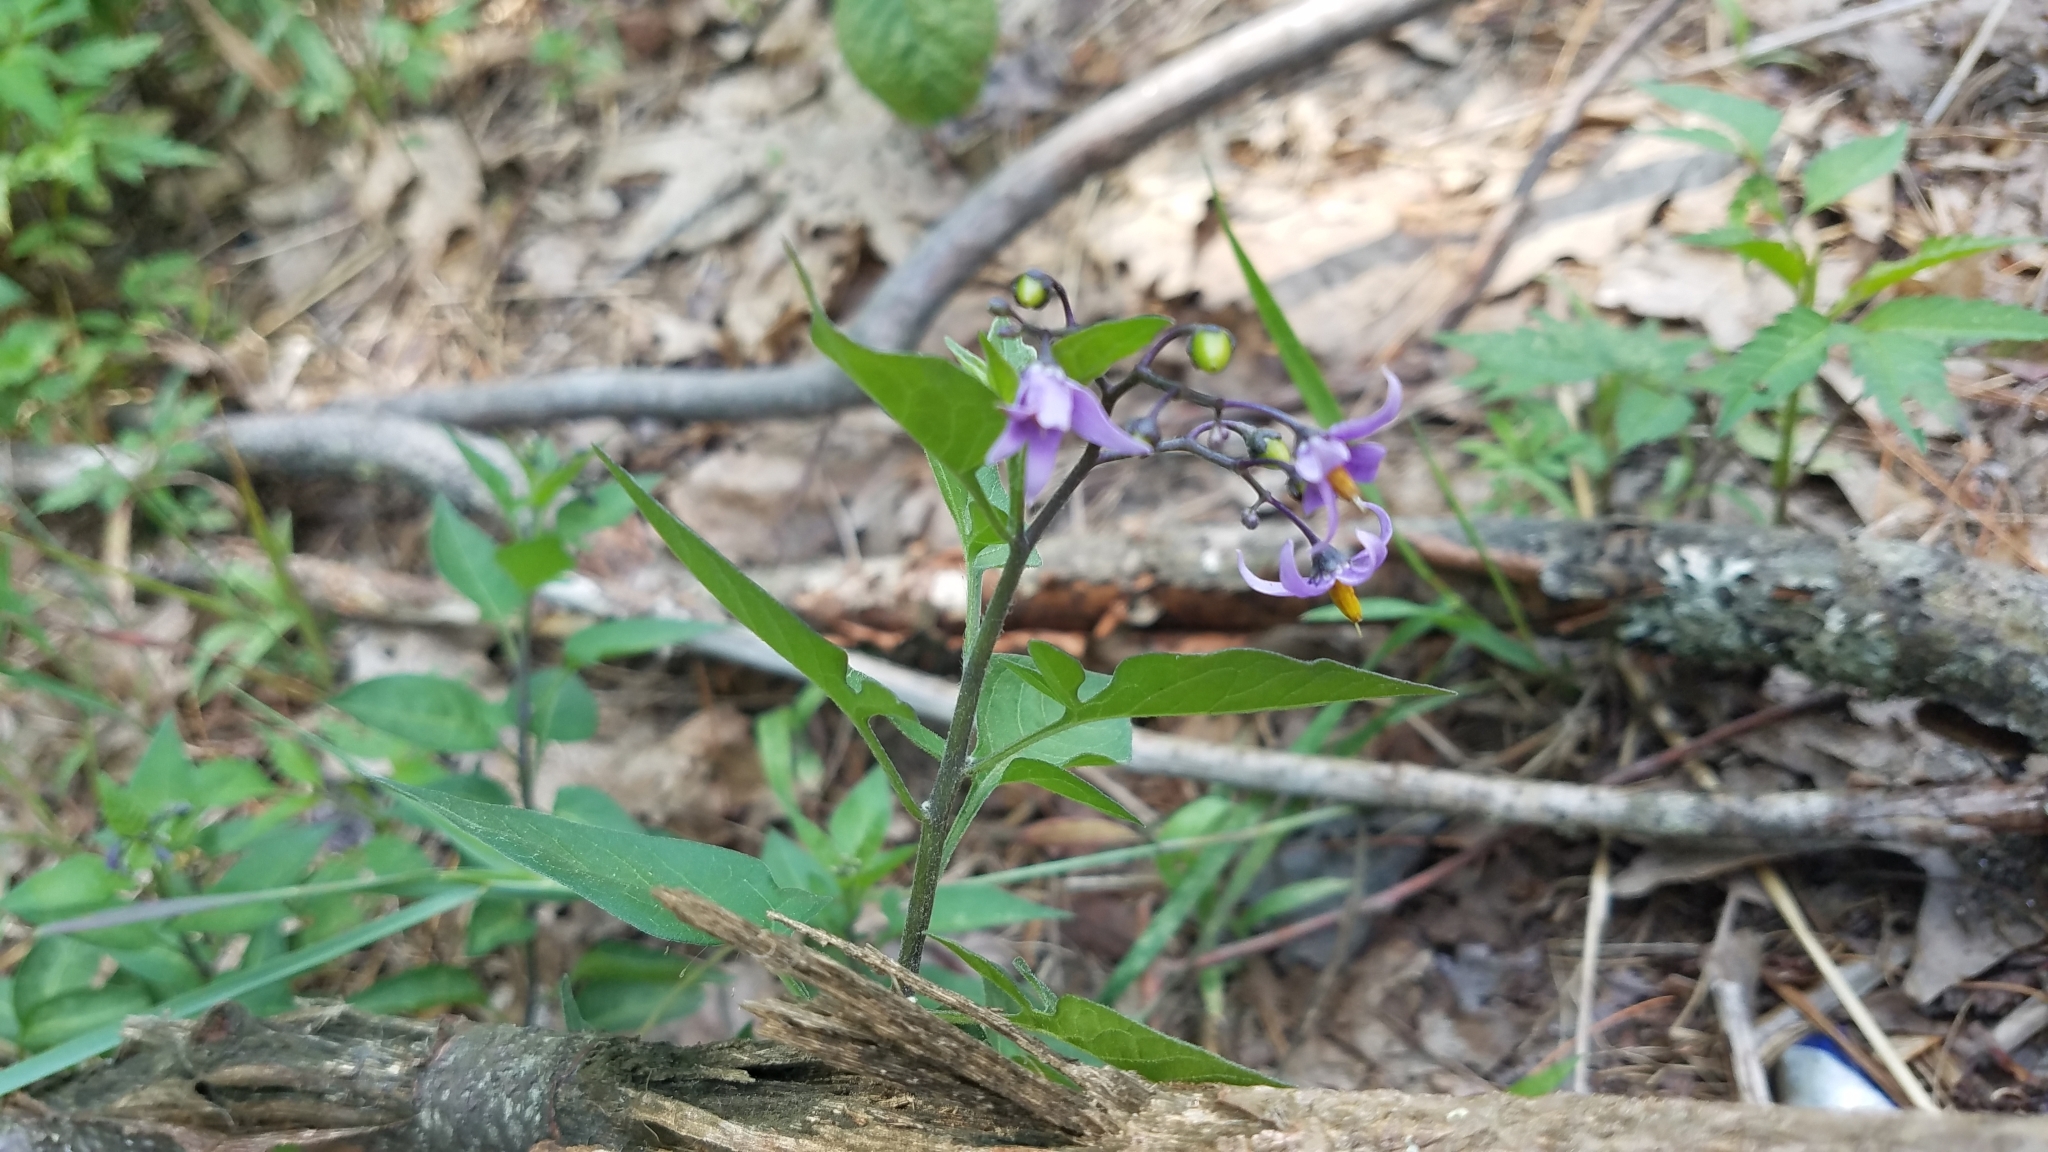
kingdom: Plantae
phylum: Tracheophyta
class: Magnoliopsida
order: Solanales
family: Solanaceae
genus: Solanum
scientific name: Solanum dulcamara
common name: Climbing nightshade
